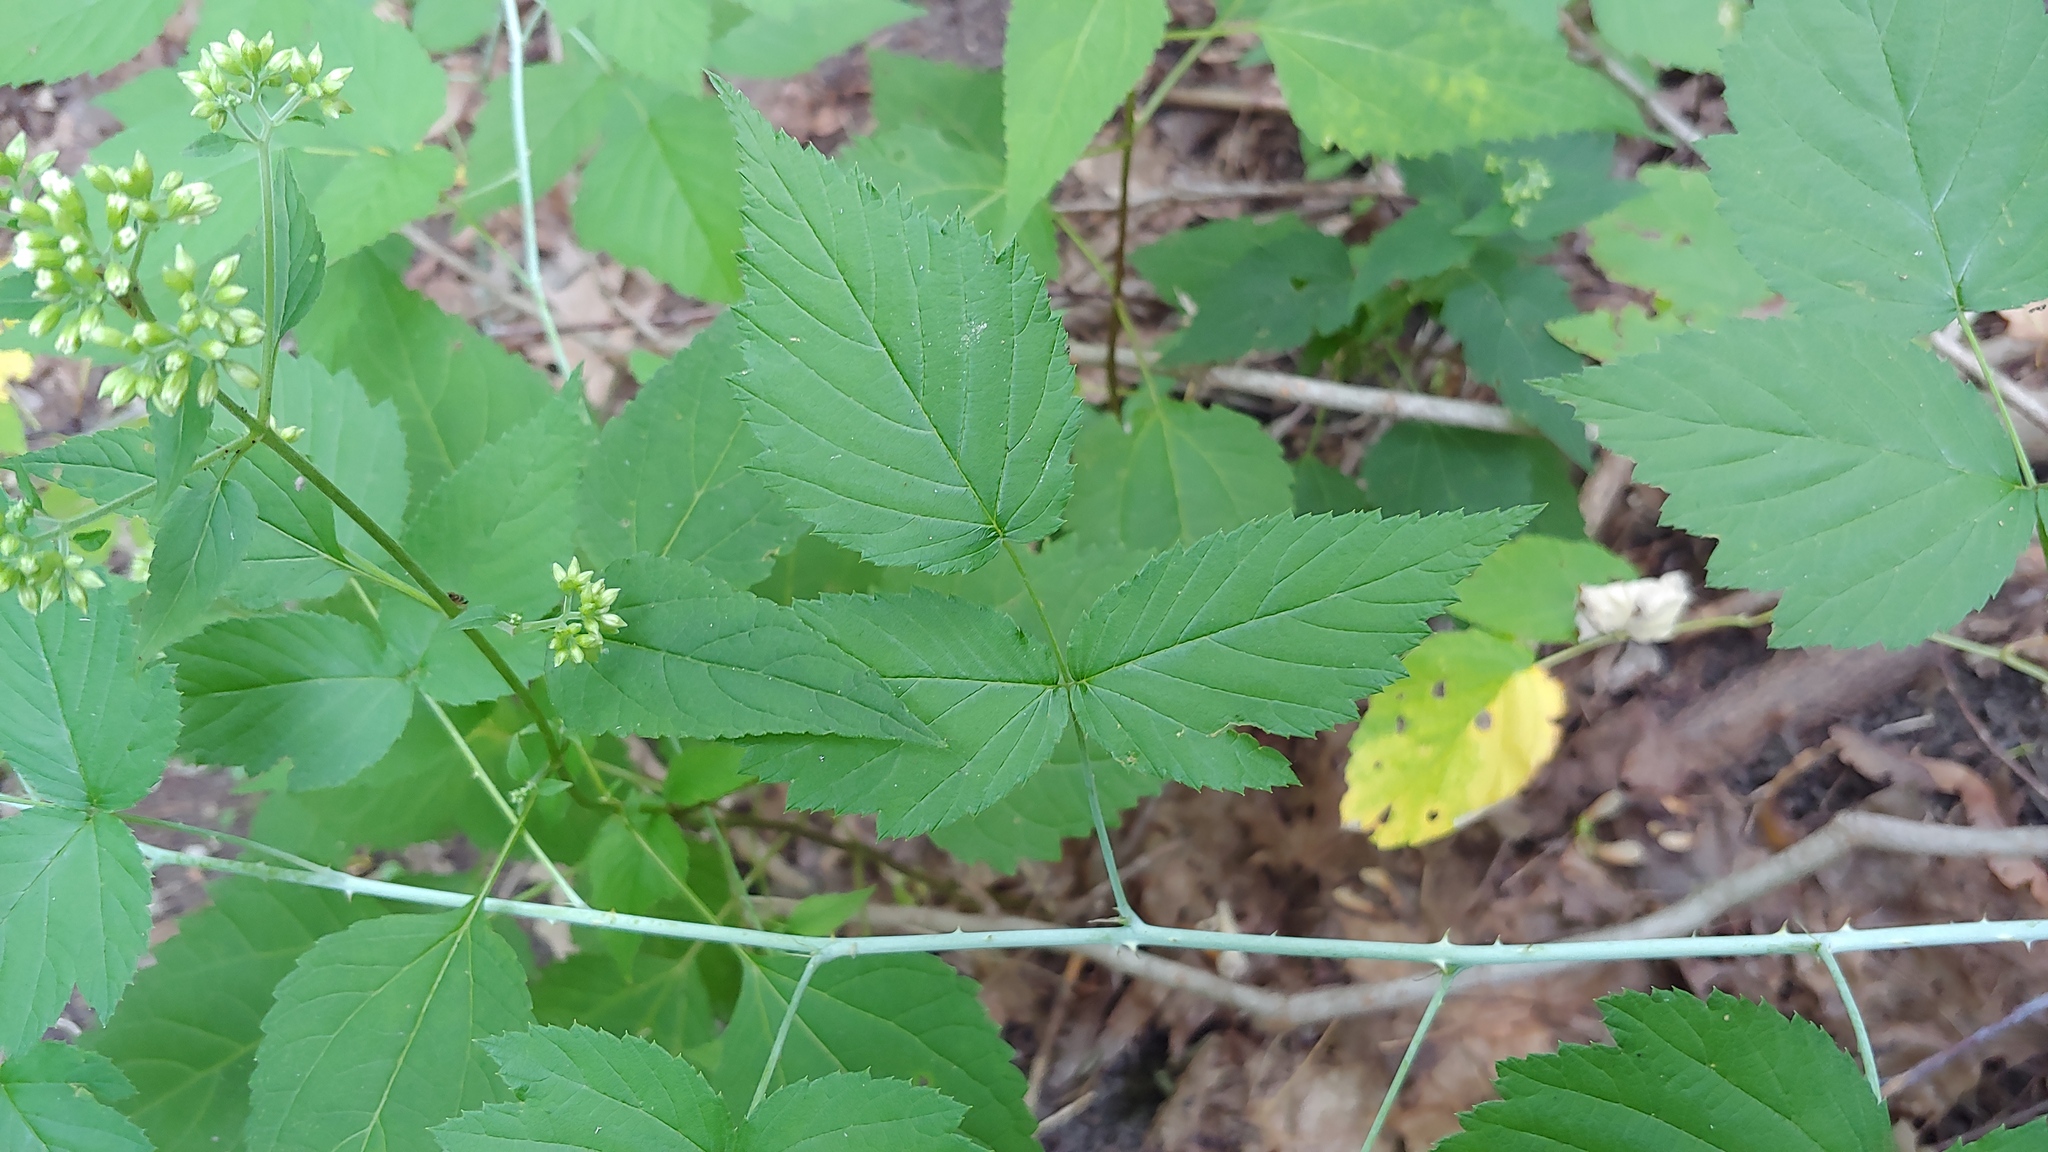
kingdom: Plantae
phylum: Tracheophyta
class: Magnoliopsida
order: Rosales
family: Rosaceae
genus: Rubus
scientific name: Rubus occidentalis
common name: Black raspberry
